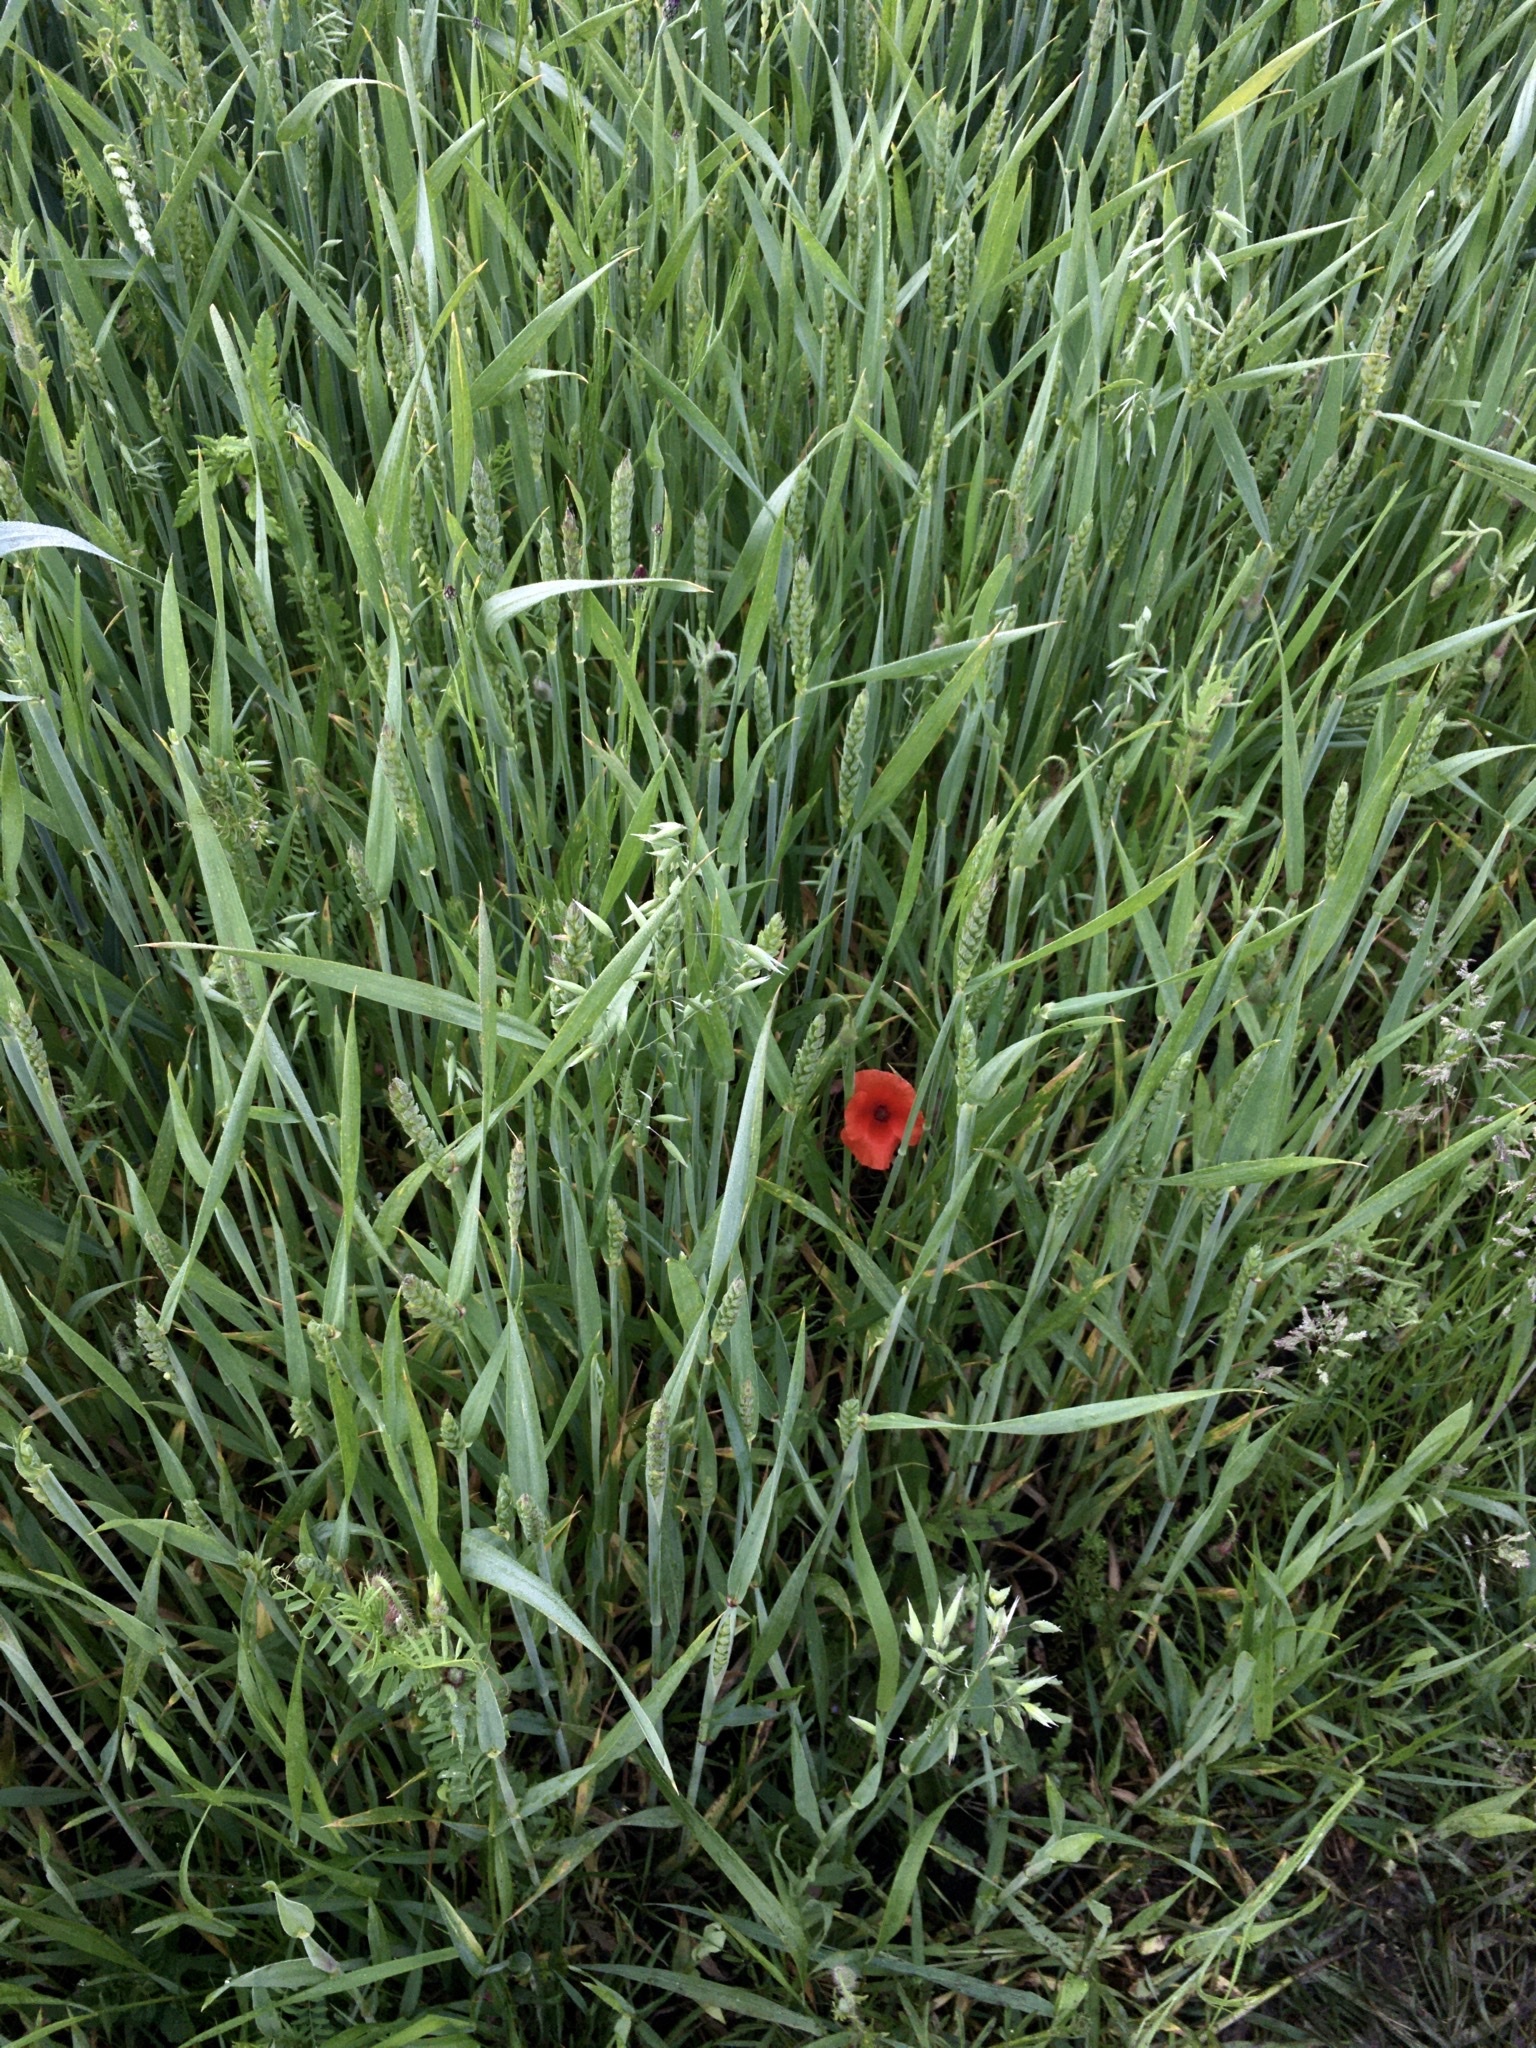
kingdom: Plantae
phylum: Tracheophyta
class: Magnoliopsida
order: Ranunculales
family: Papaveraceae
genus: Papaver
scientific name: Papaver rhoeas
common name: Corn poppy
